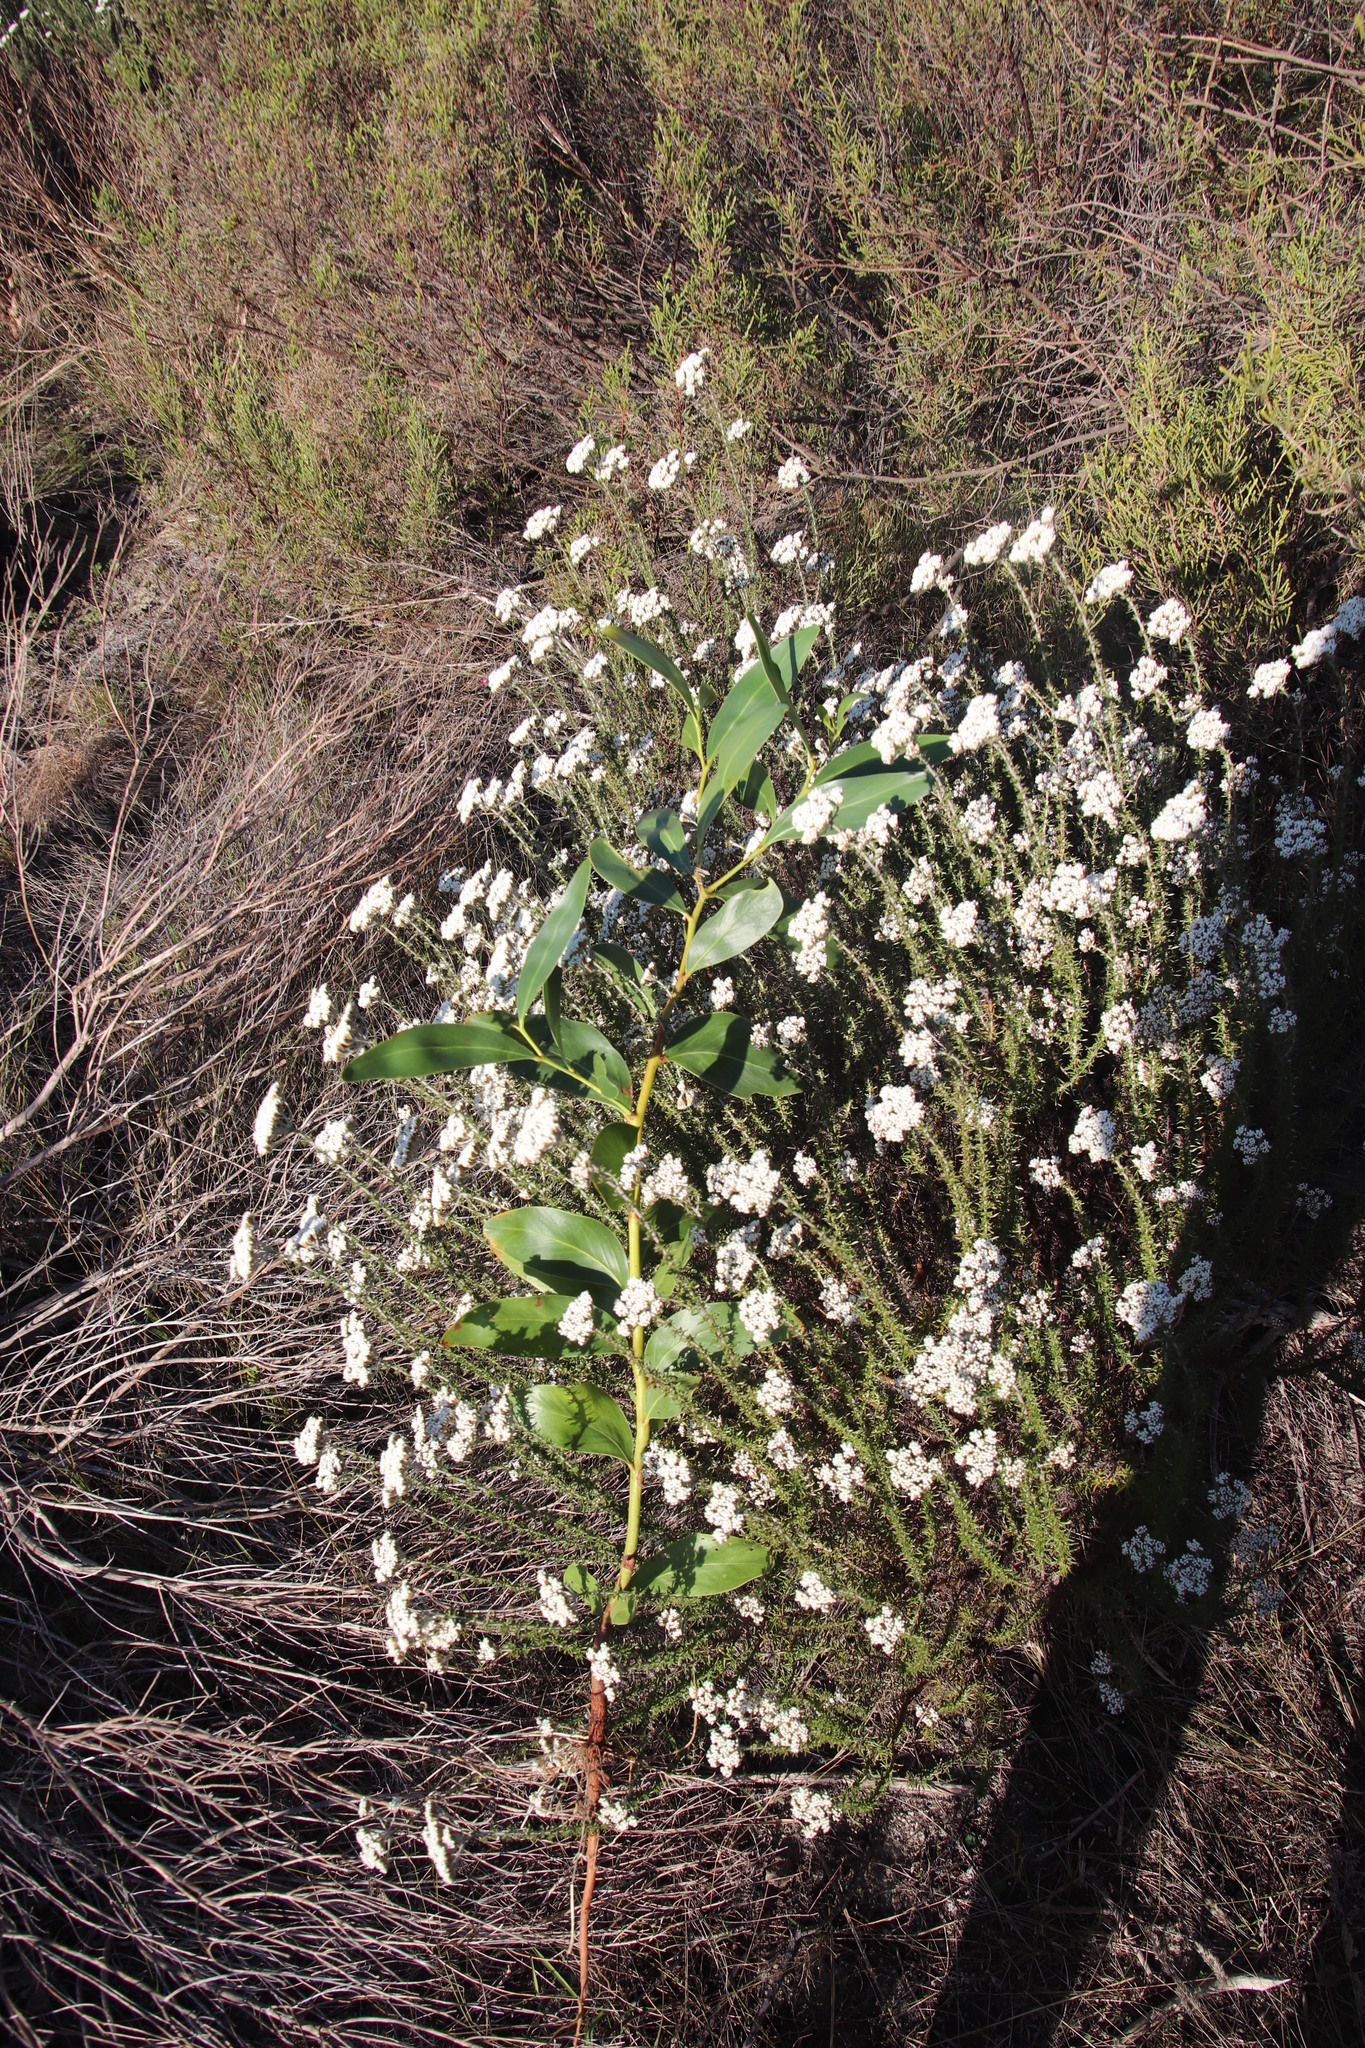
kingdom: Plantae
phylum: Tracheophyta
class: Magnoliopsida
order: Fabales
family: Fabaceae
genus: Acacia
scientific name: Acacia pycnantha
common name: Golden wattle
